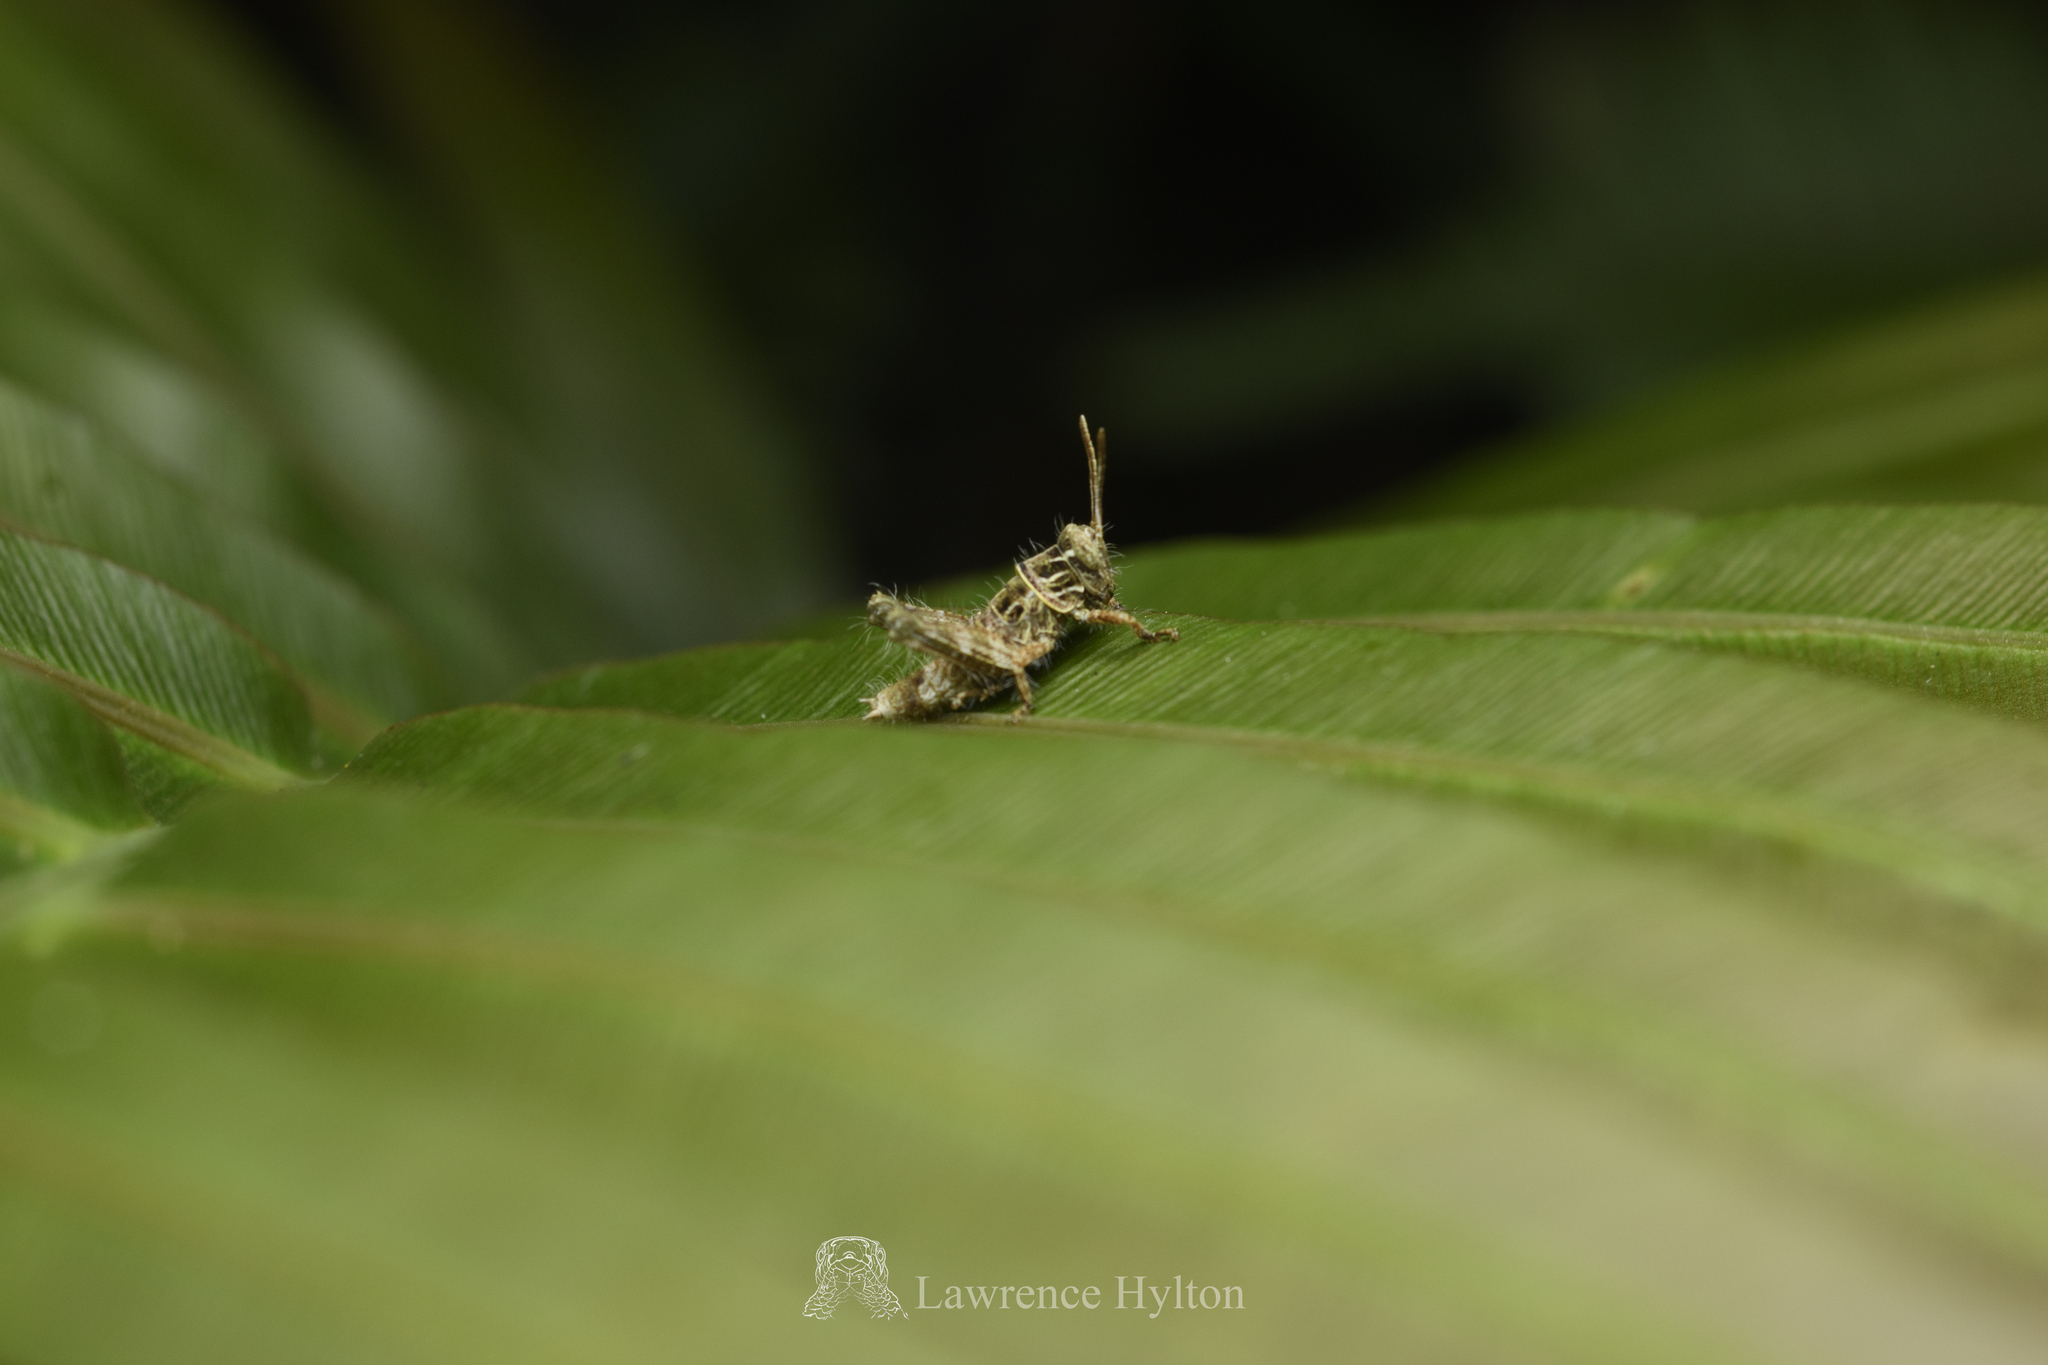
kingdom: Animalia
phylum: Arthropoda
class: Insecta
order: Orthoptera
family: Acrididae
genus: Apalacris
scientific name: Apalacris varicornis
